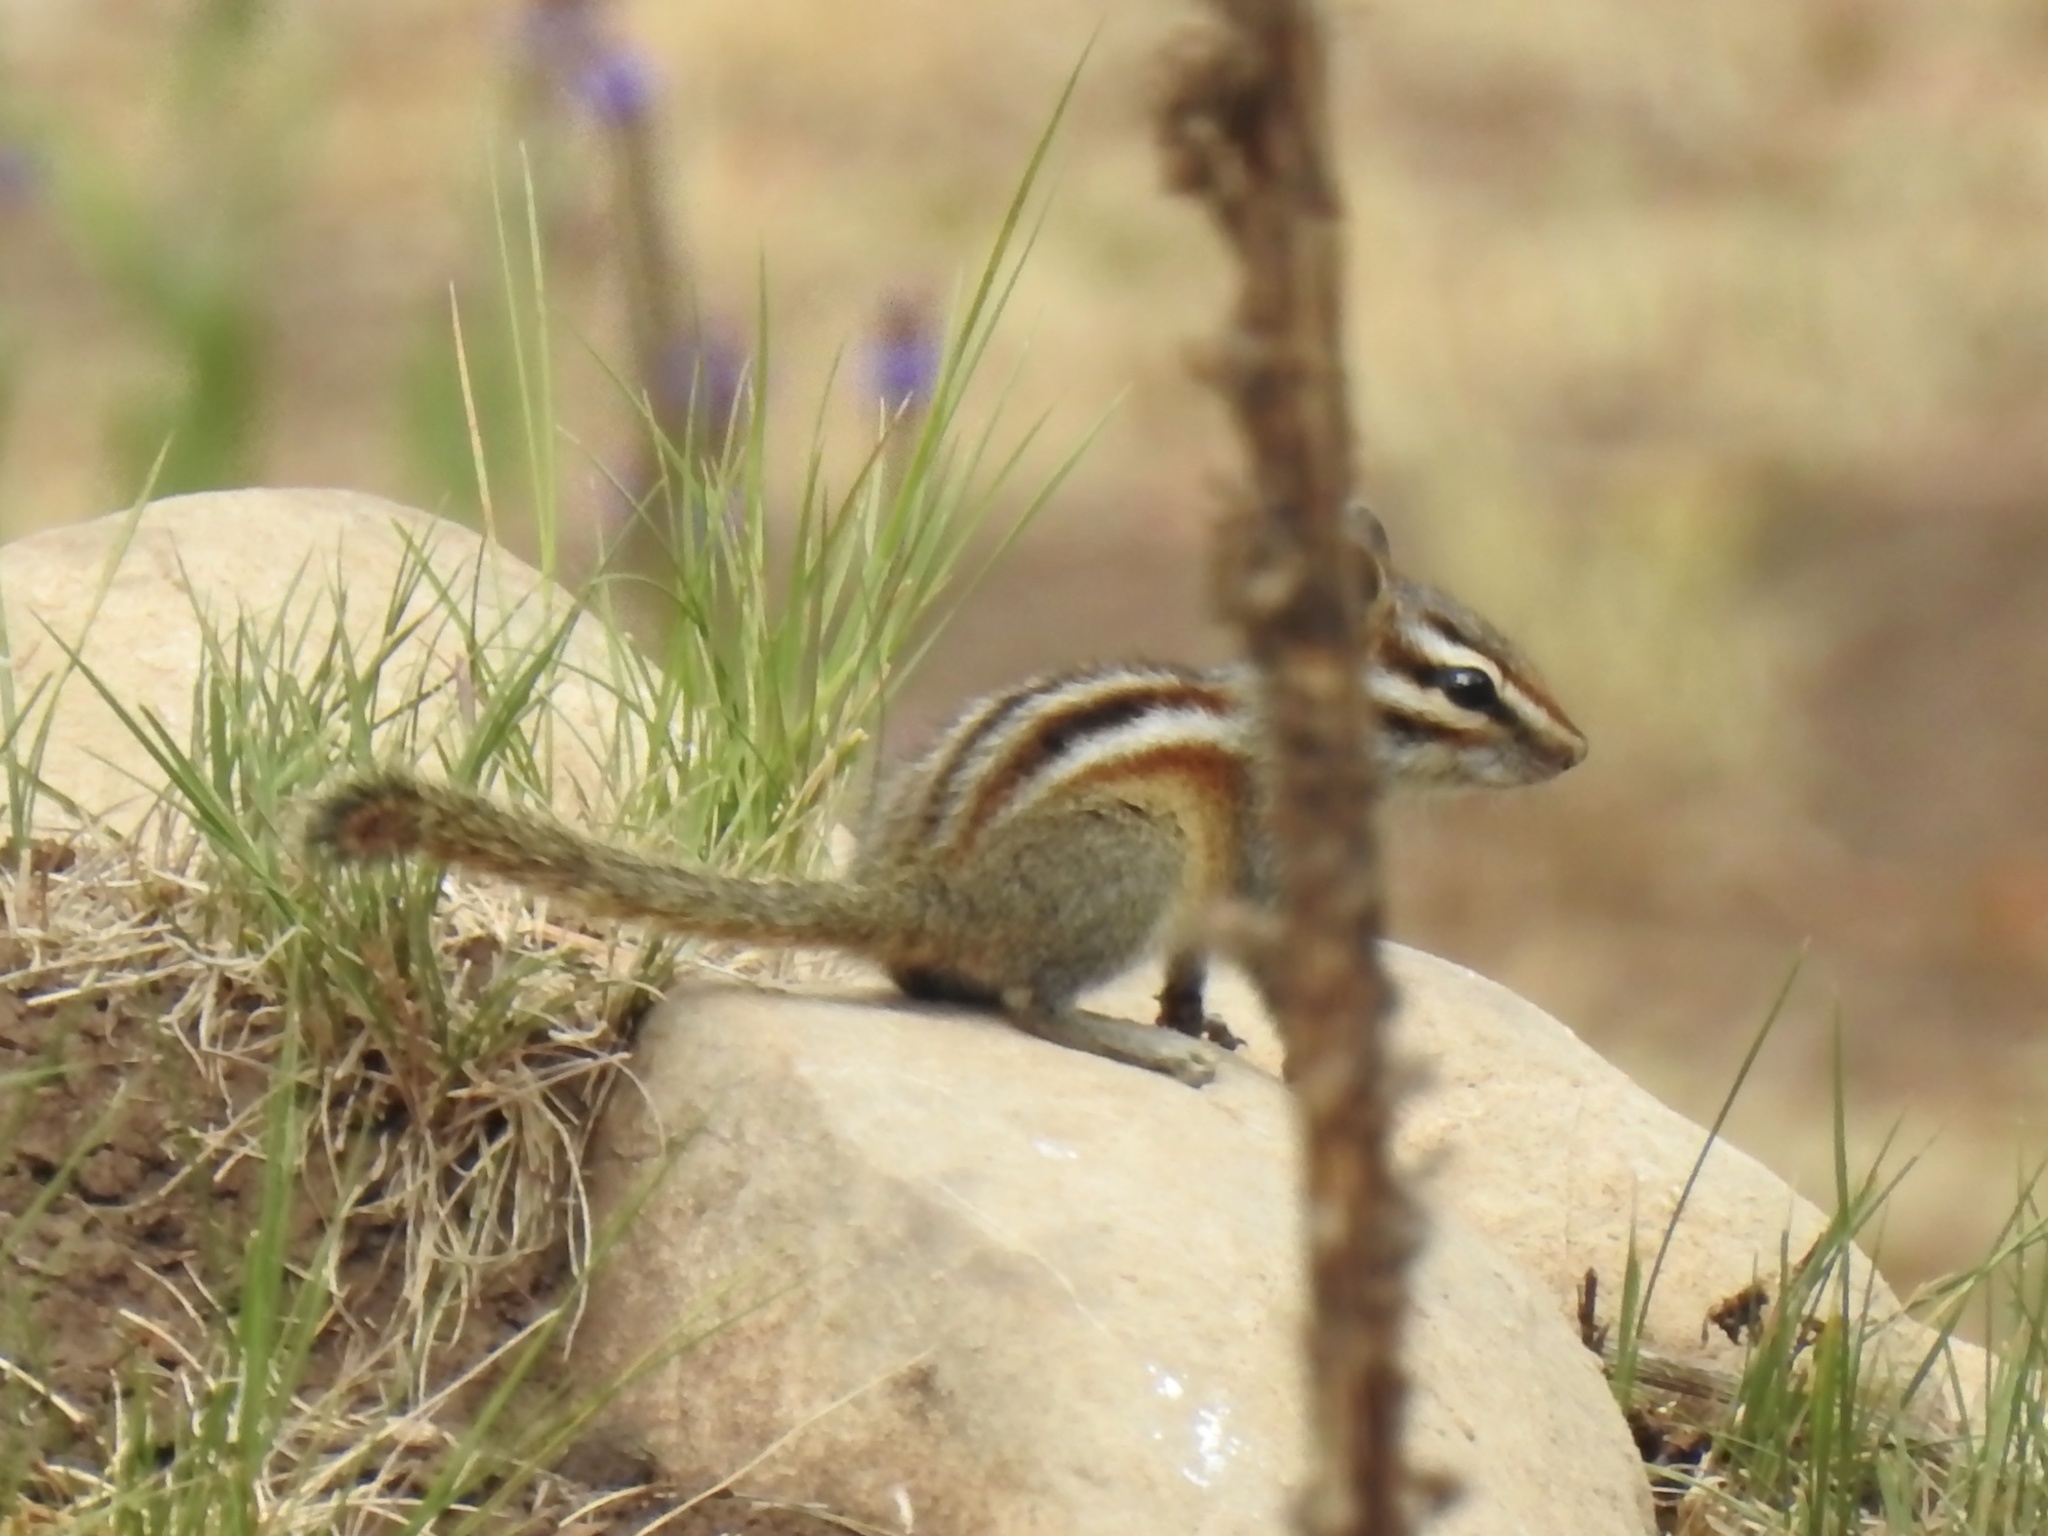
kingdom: Animalia
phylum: Chordata
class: Mammalia
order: Rodentia
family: Sciuridae
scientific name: Sciuridae
